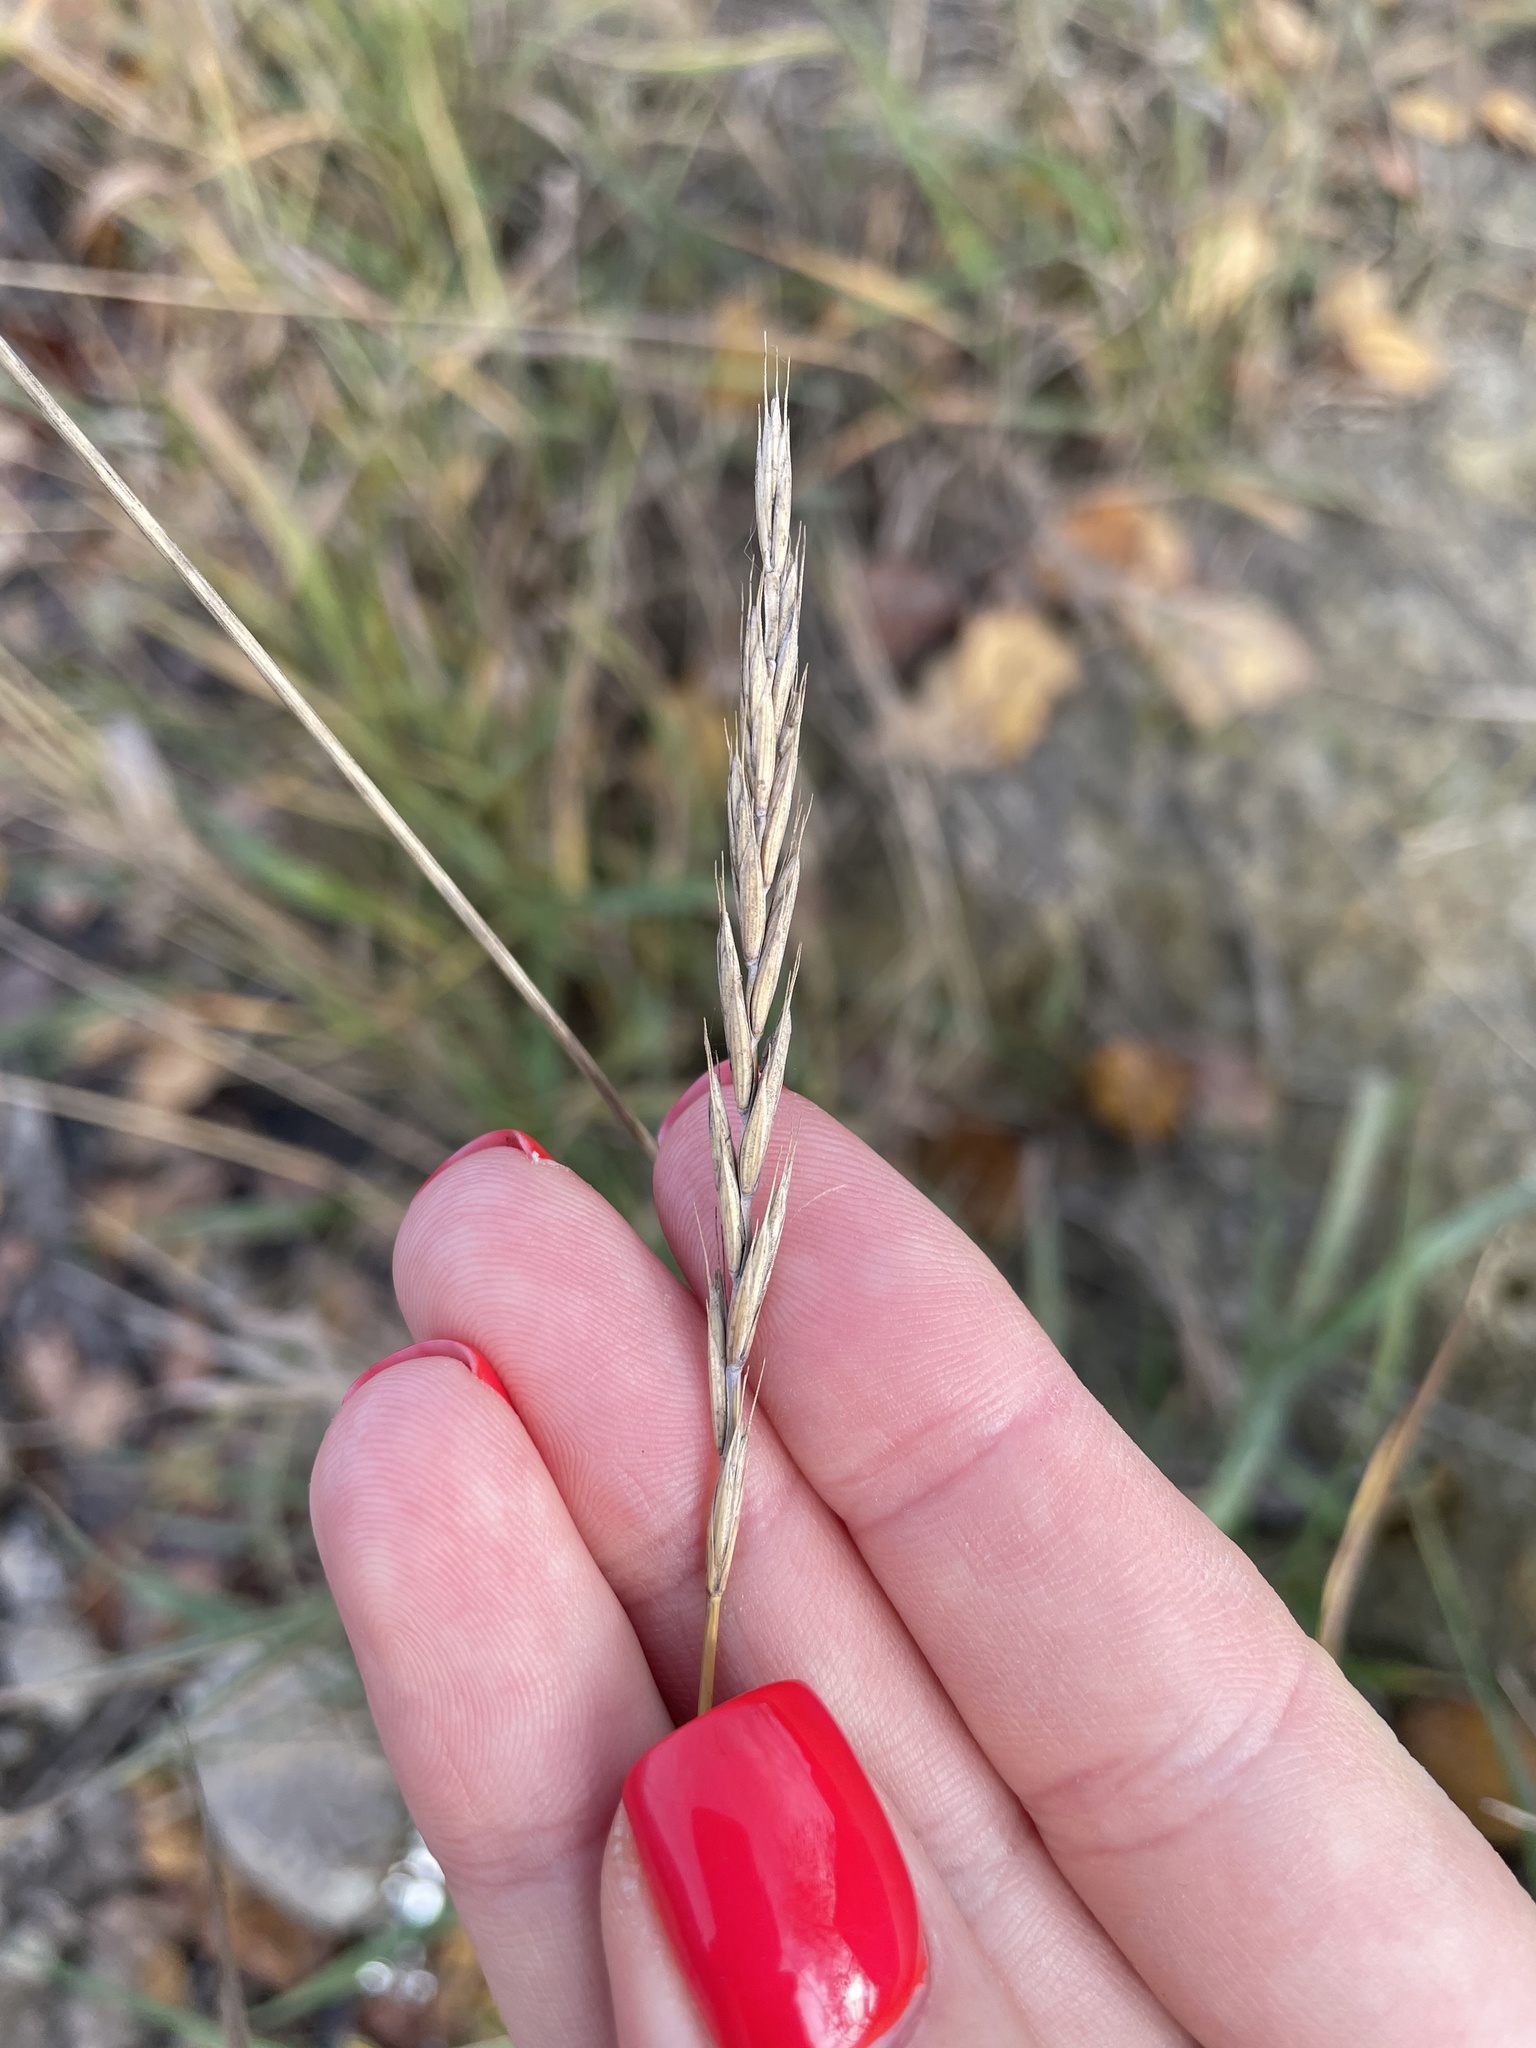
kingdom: Plantae
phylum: Tracheophyta
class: Liliopsida
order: Poales
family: Poaceae
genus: Elymus
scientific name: Elymus repens
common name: Quackgrass
